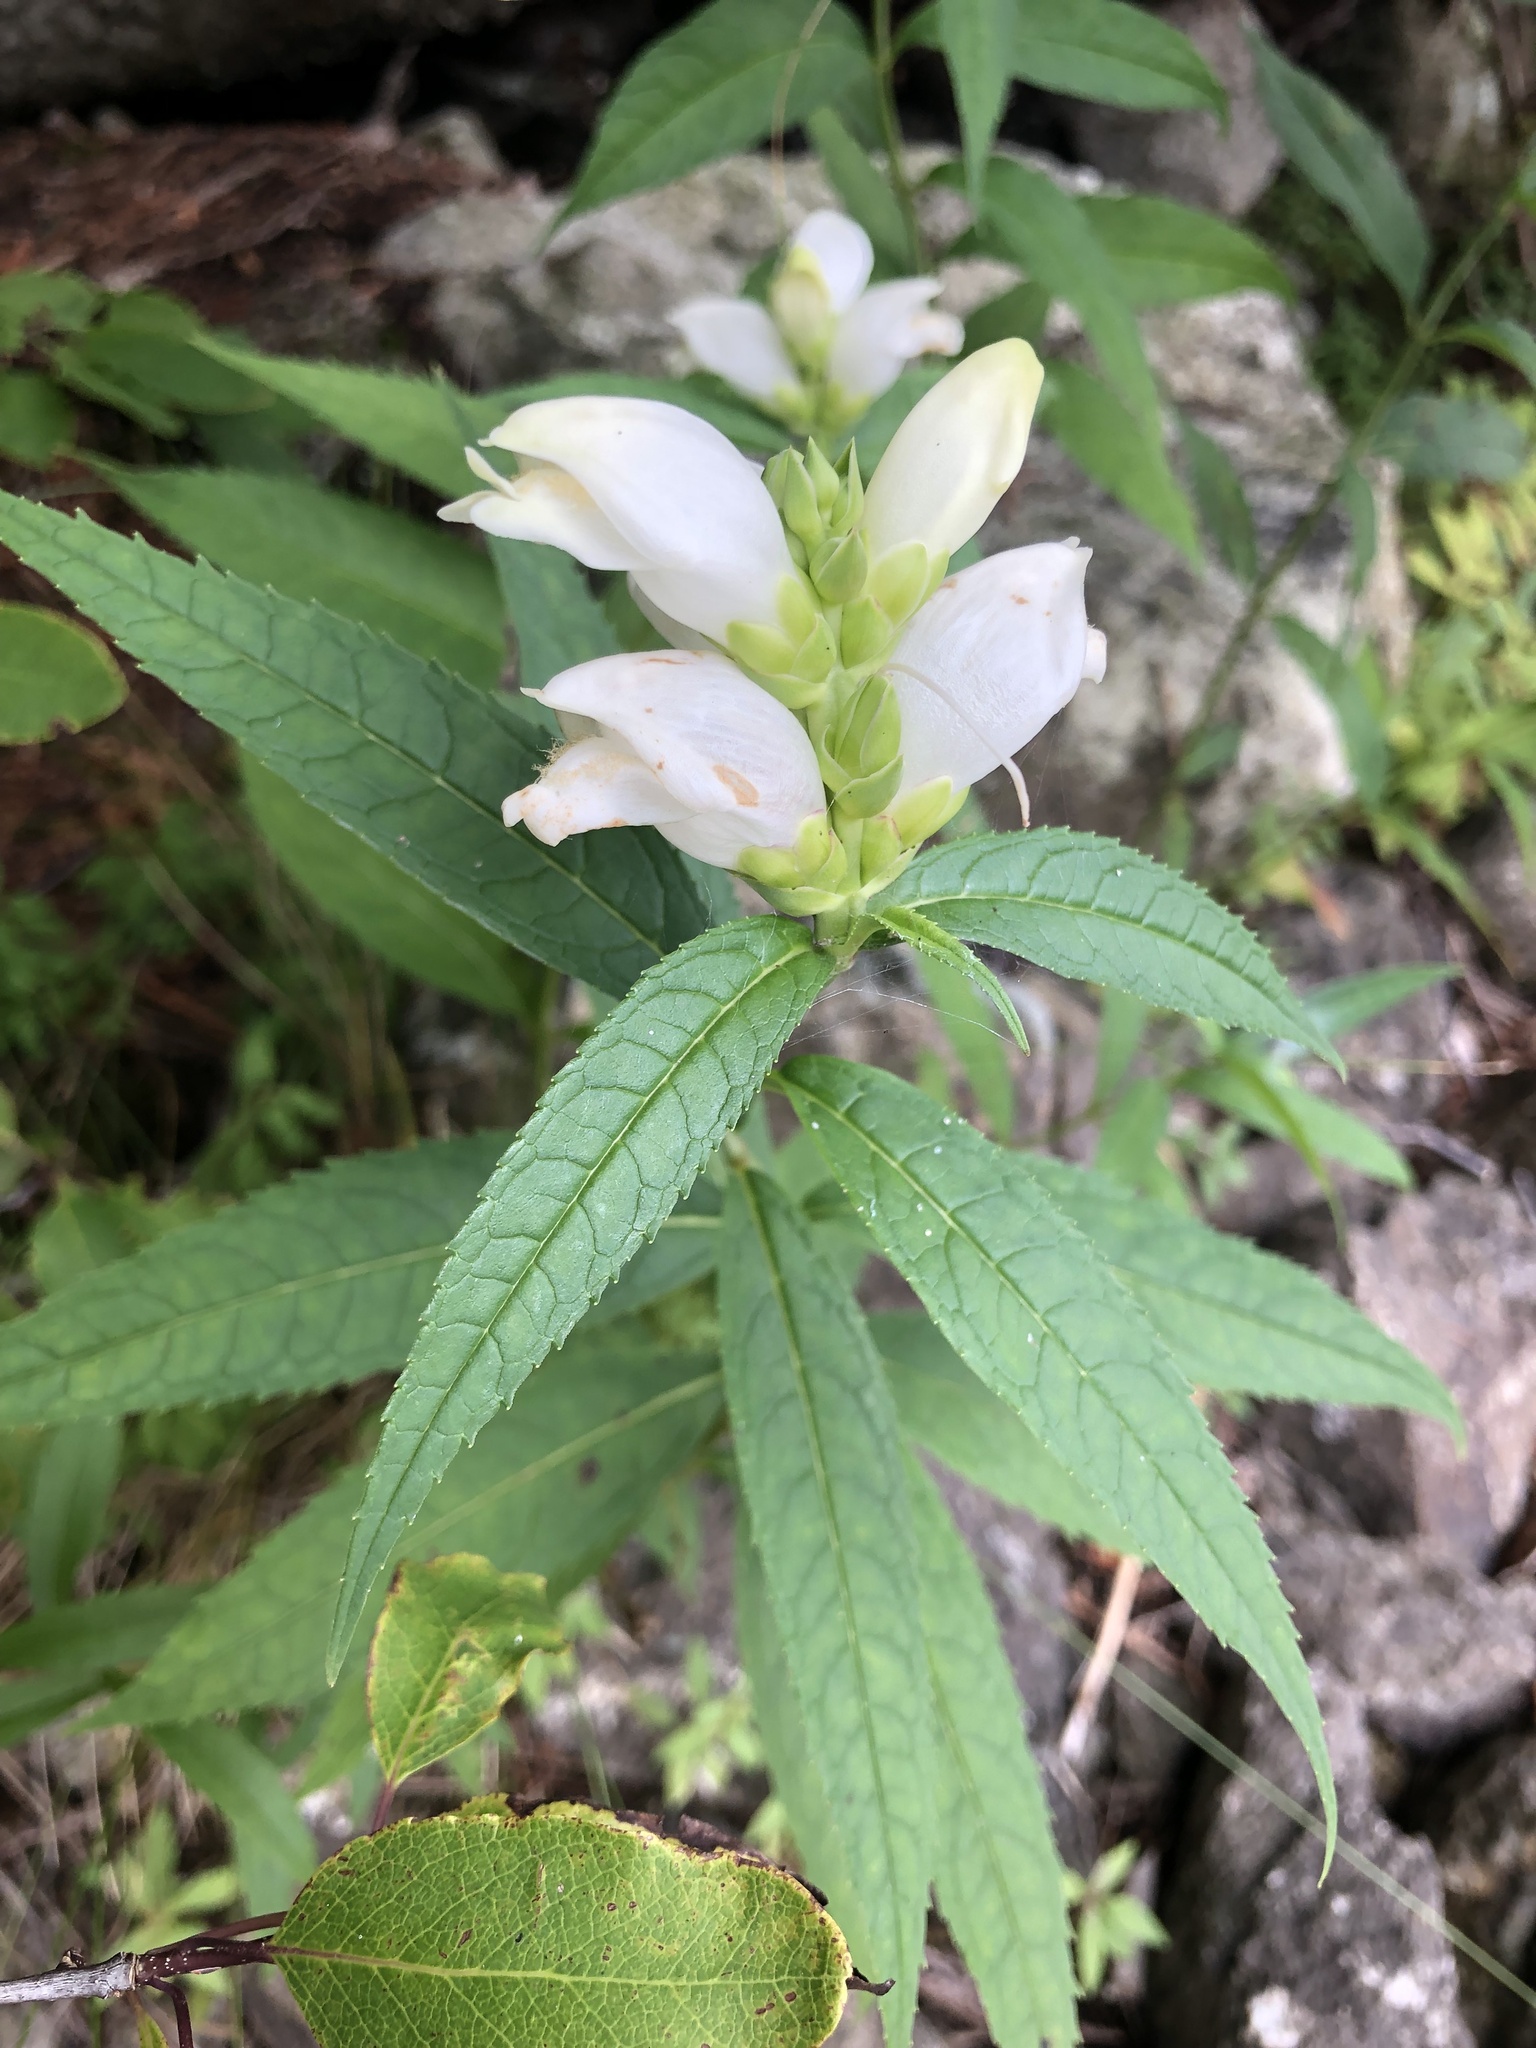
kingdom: Plantae
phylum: Tracheophyta
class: Magnoliopsida
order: Lamiales
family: Plantaginaceae
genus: Chelone
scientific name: Chelone glabra
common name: Snakehead
